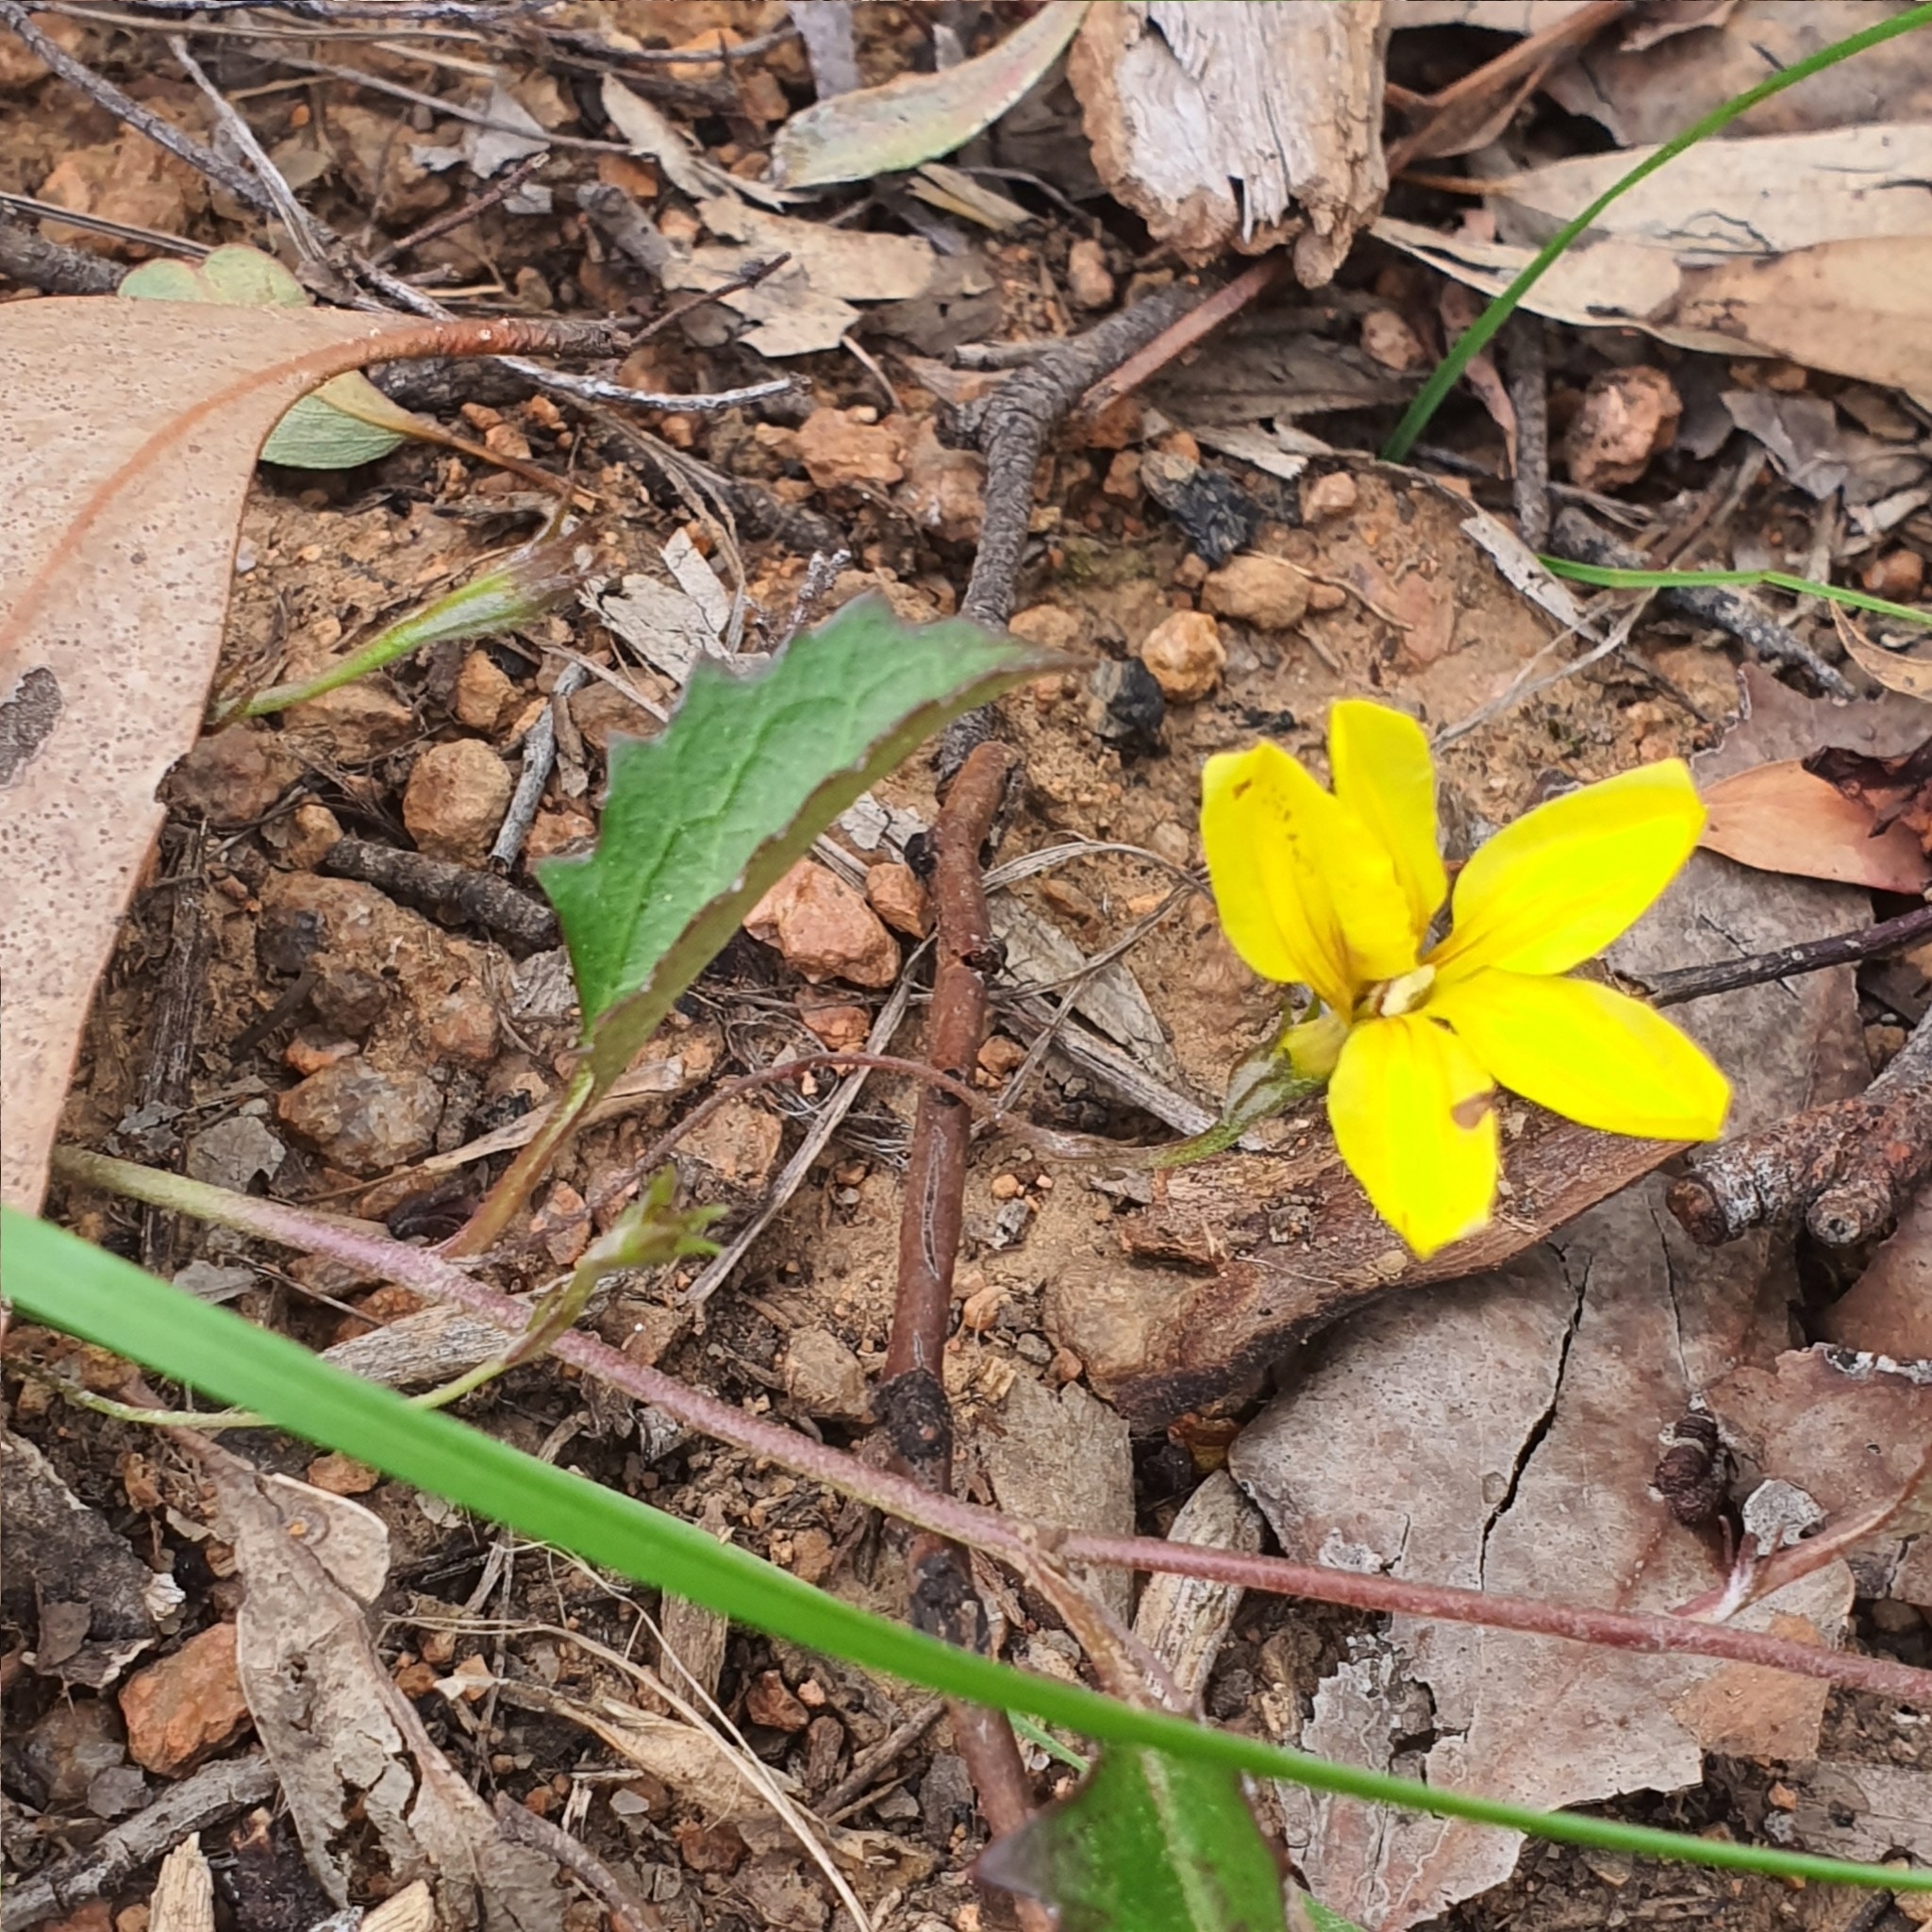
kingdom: Plantae
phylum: Tracheophyta
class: Magnoliopsida
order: Asterales
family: Goodeniaceae
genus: Goodenia
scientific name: Goodenia hederacea
